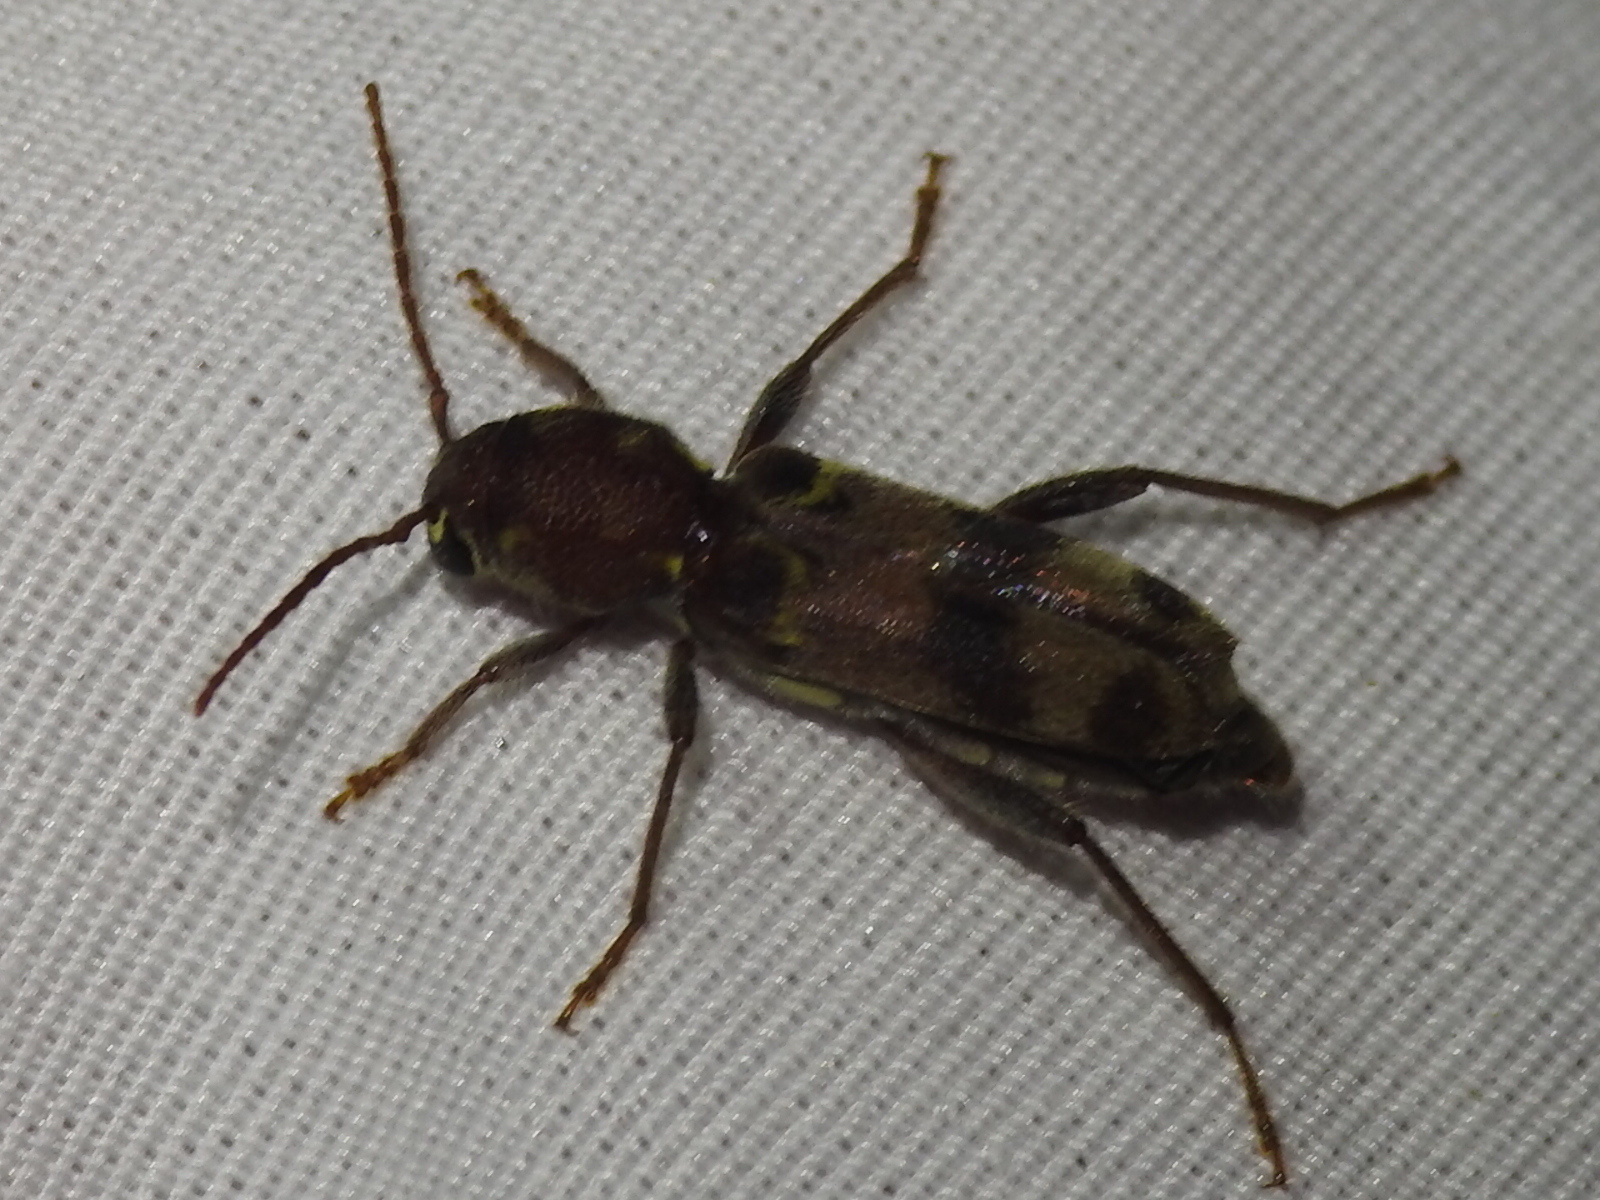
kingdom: Animalia
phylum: Arthropoda
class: Insecta
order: Coleoptera
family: Cerambycidae
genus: Xylotrechus
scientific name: Xylotrechus colonus
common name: Long-horned beetle
